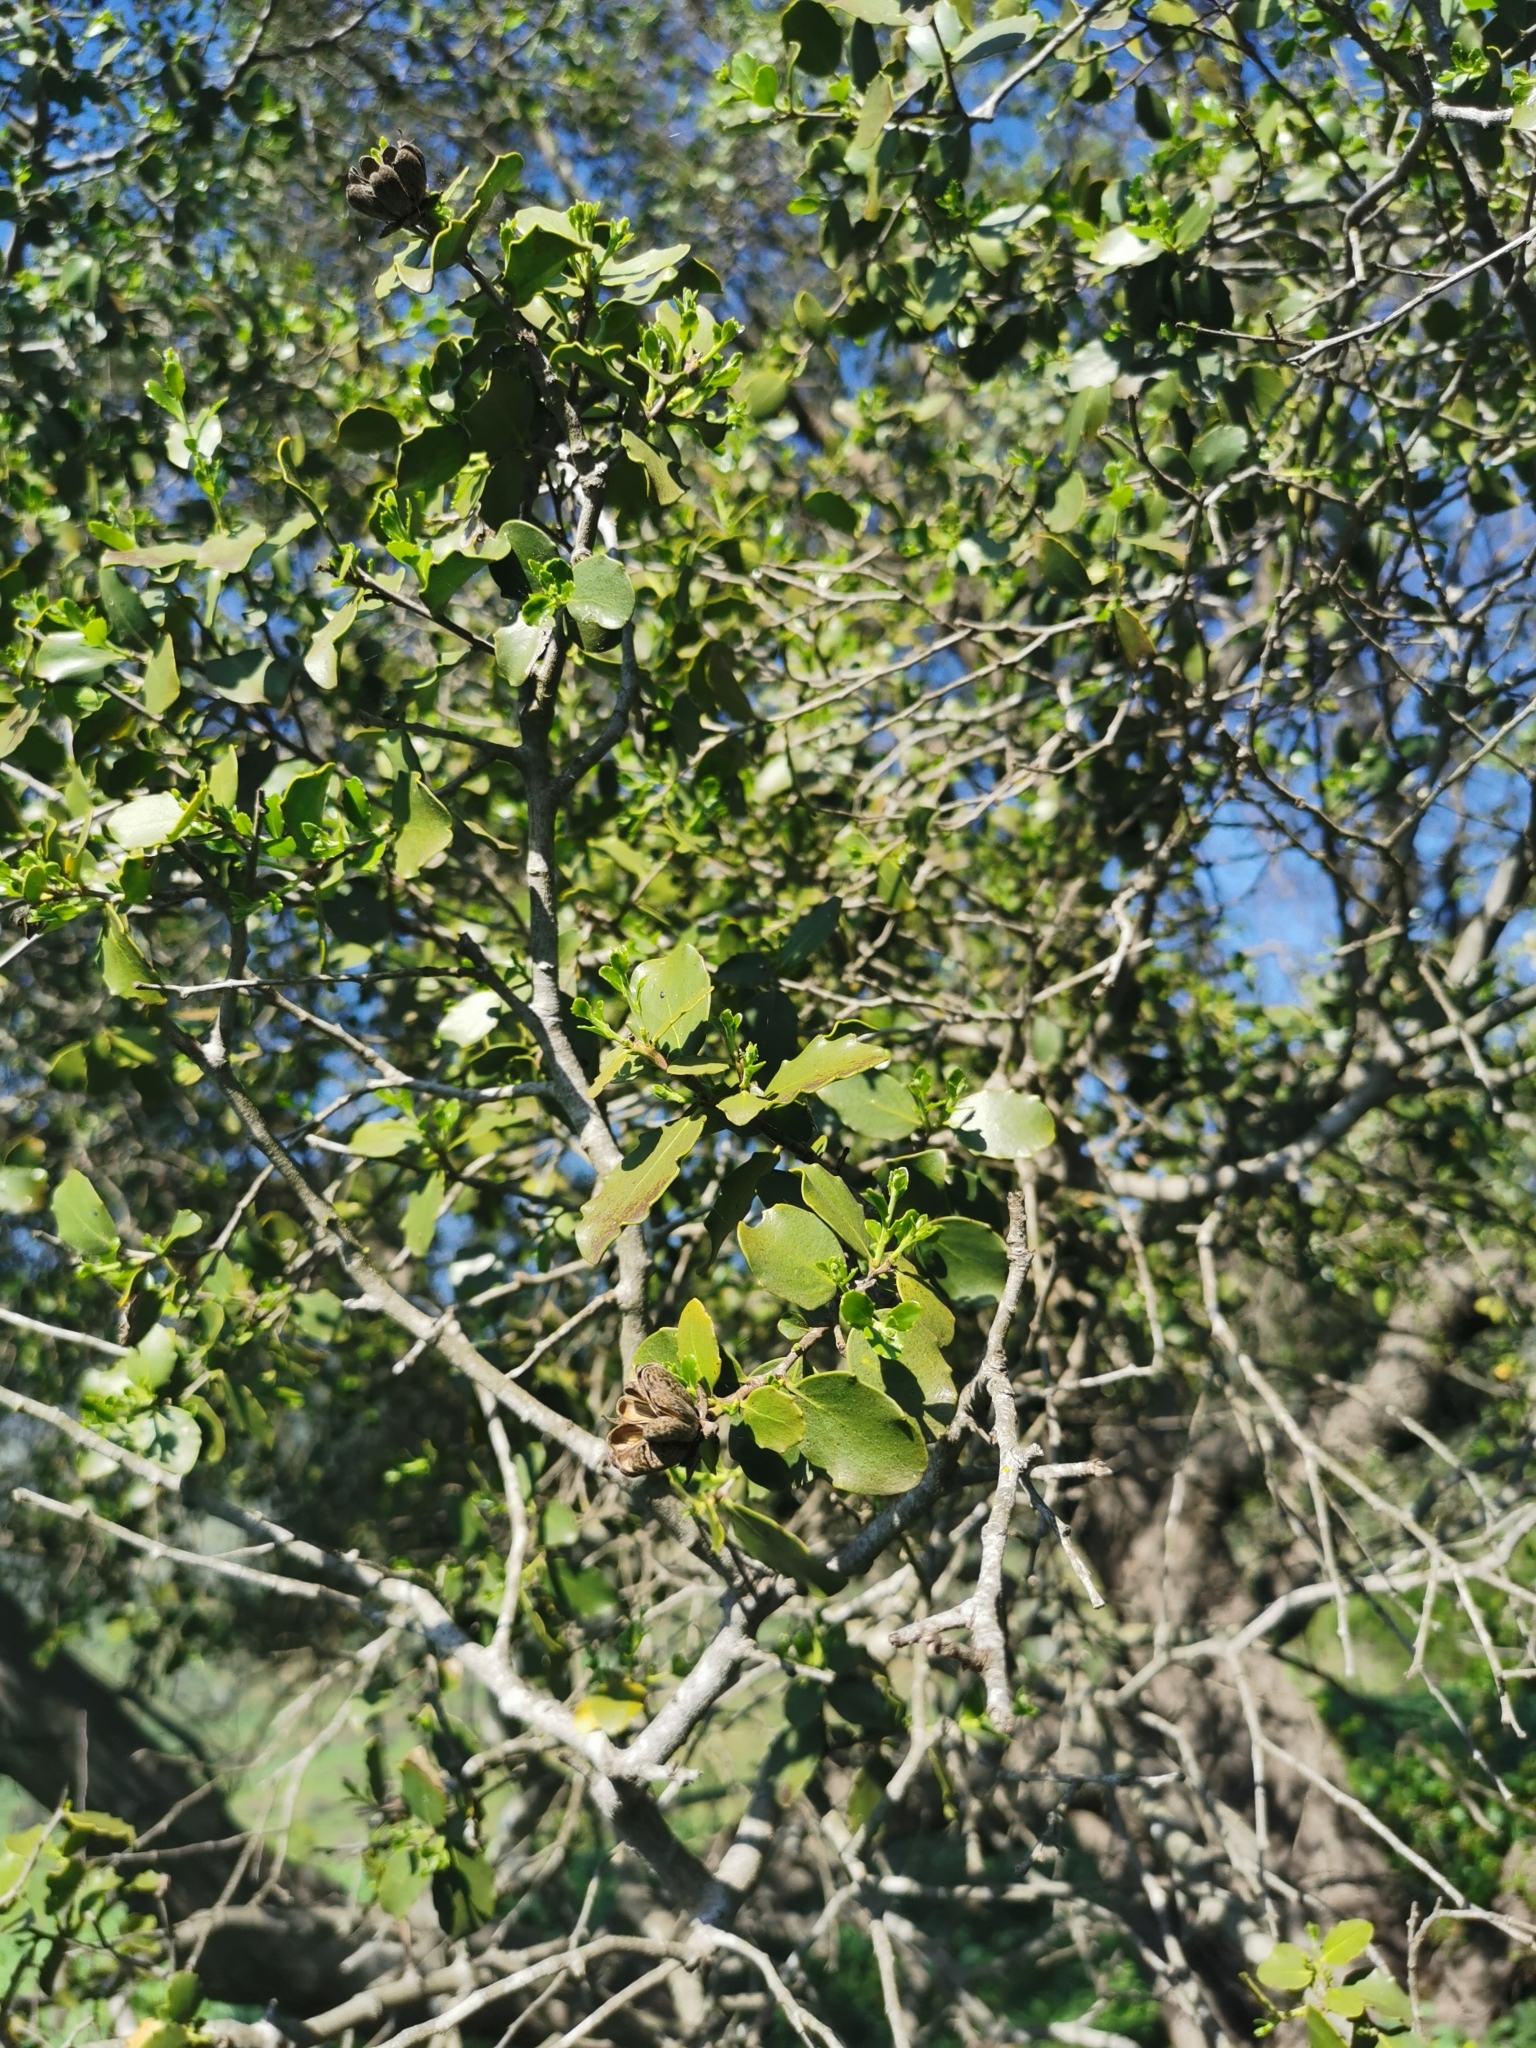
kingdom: Plantae
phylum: Tracheophyta
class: Magnoliopsida
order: Fabales
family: Quillajaceae
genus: Quillaja
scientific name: Quillaja saponaria
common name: Murillo's-bark
